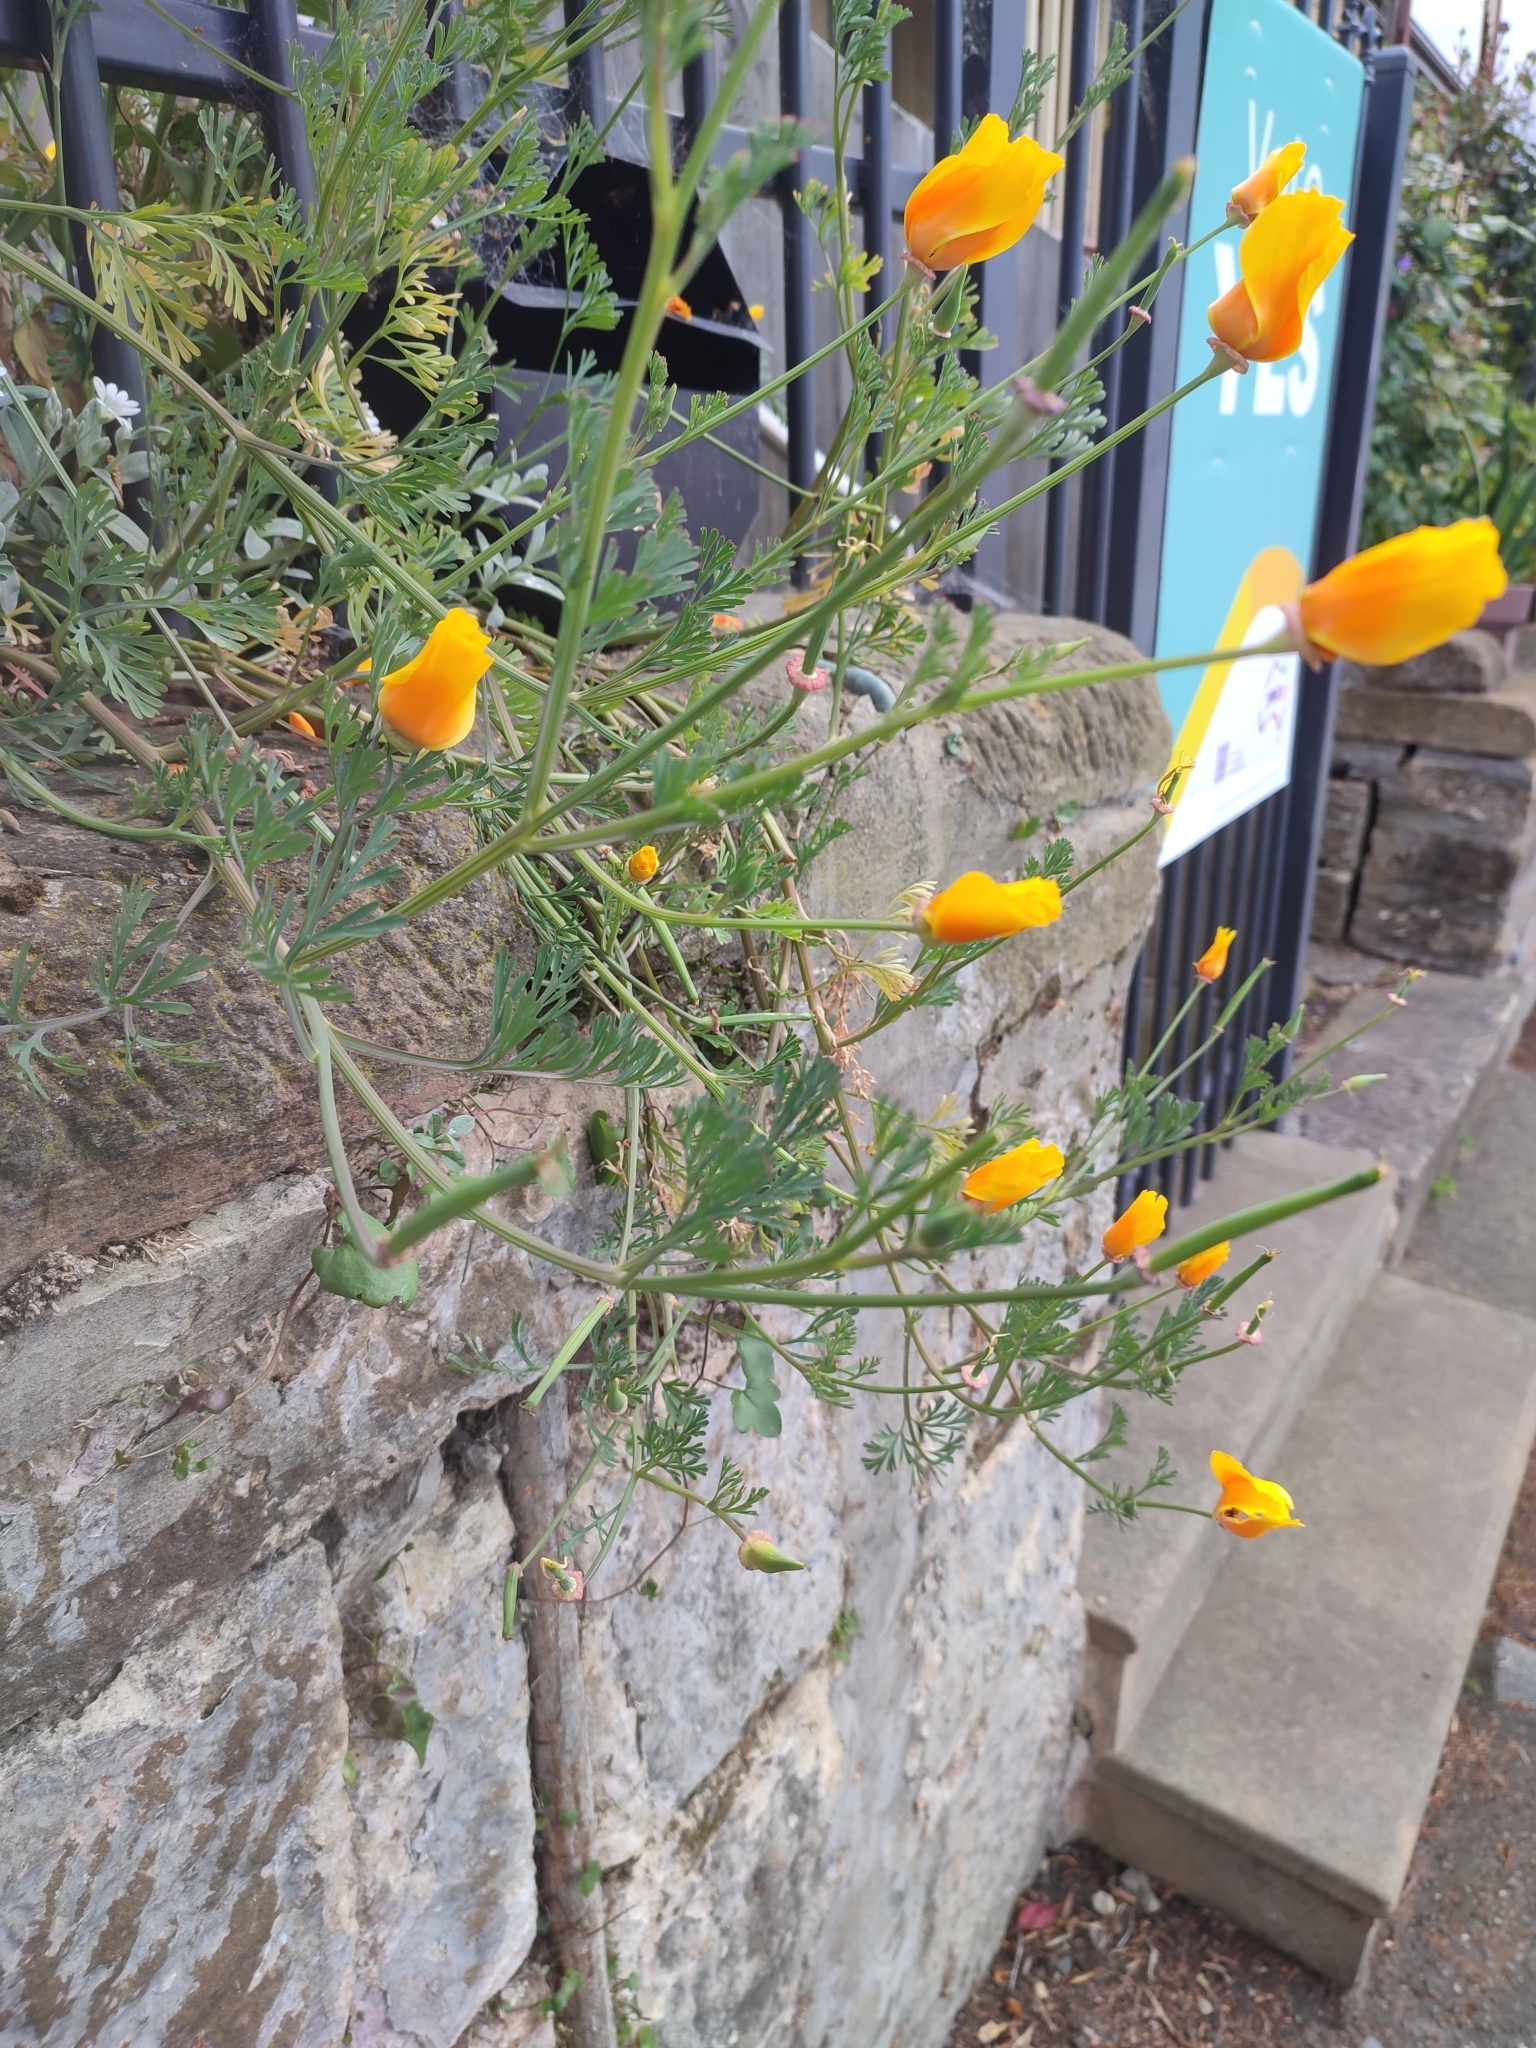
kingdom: Plantae
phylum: Tracheophyta
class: Magnoliopsida
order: Ranunculales
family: Papaveraceae
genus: Eschscholzia
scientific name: Eschscholzia californica
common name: California poppy
